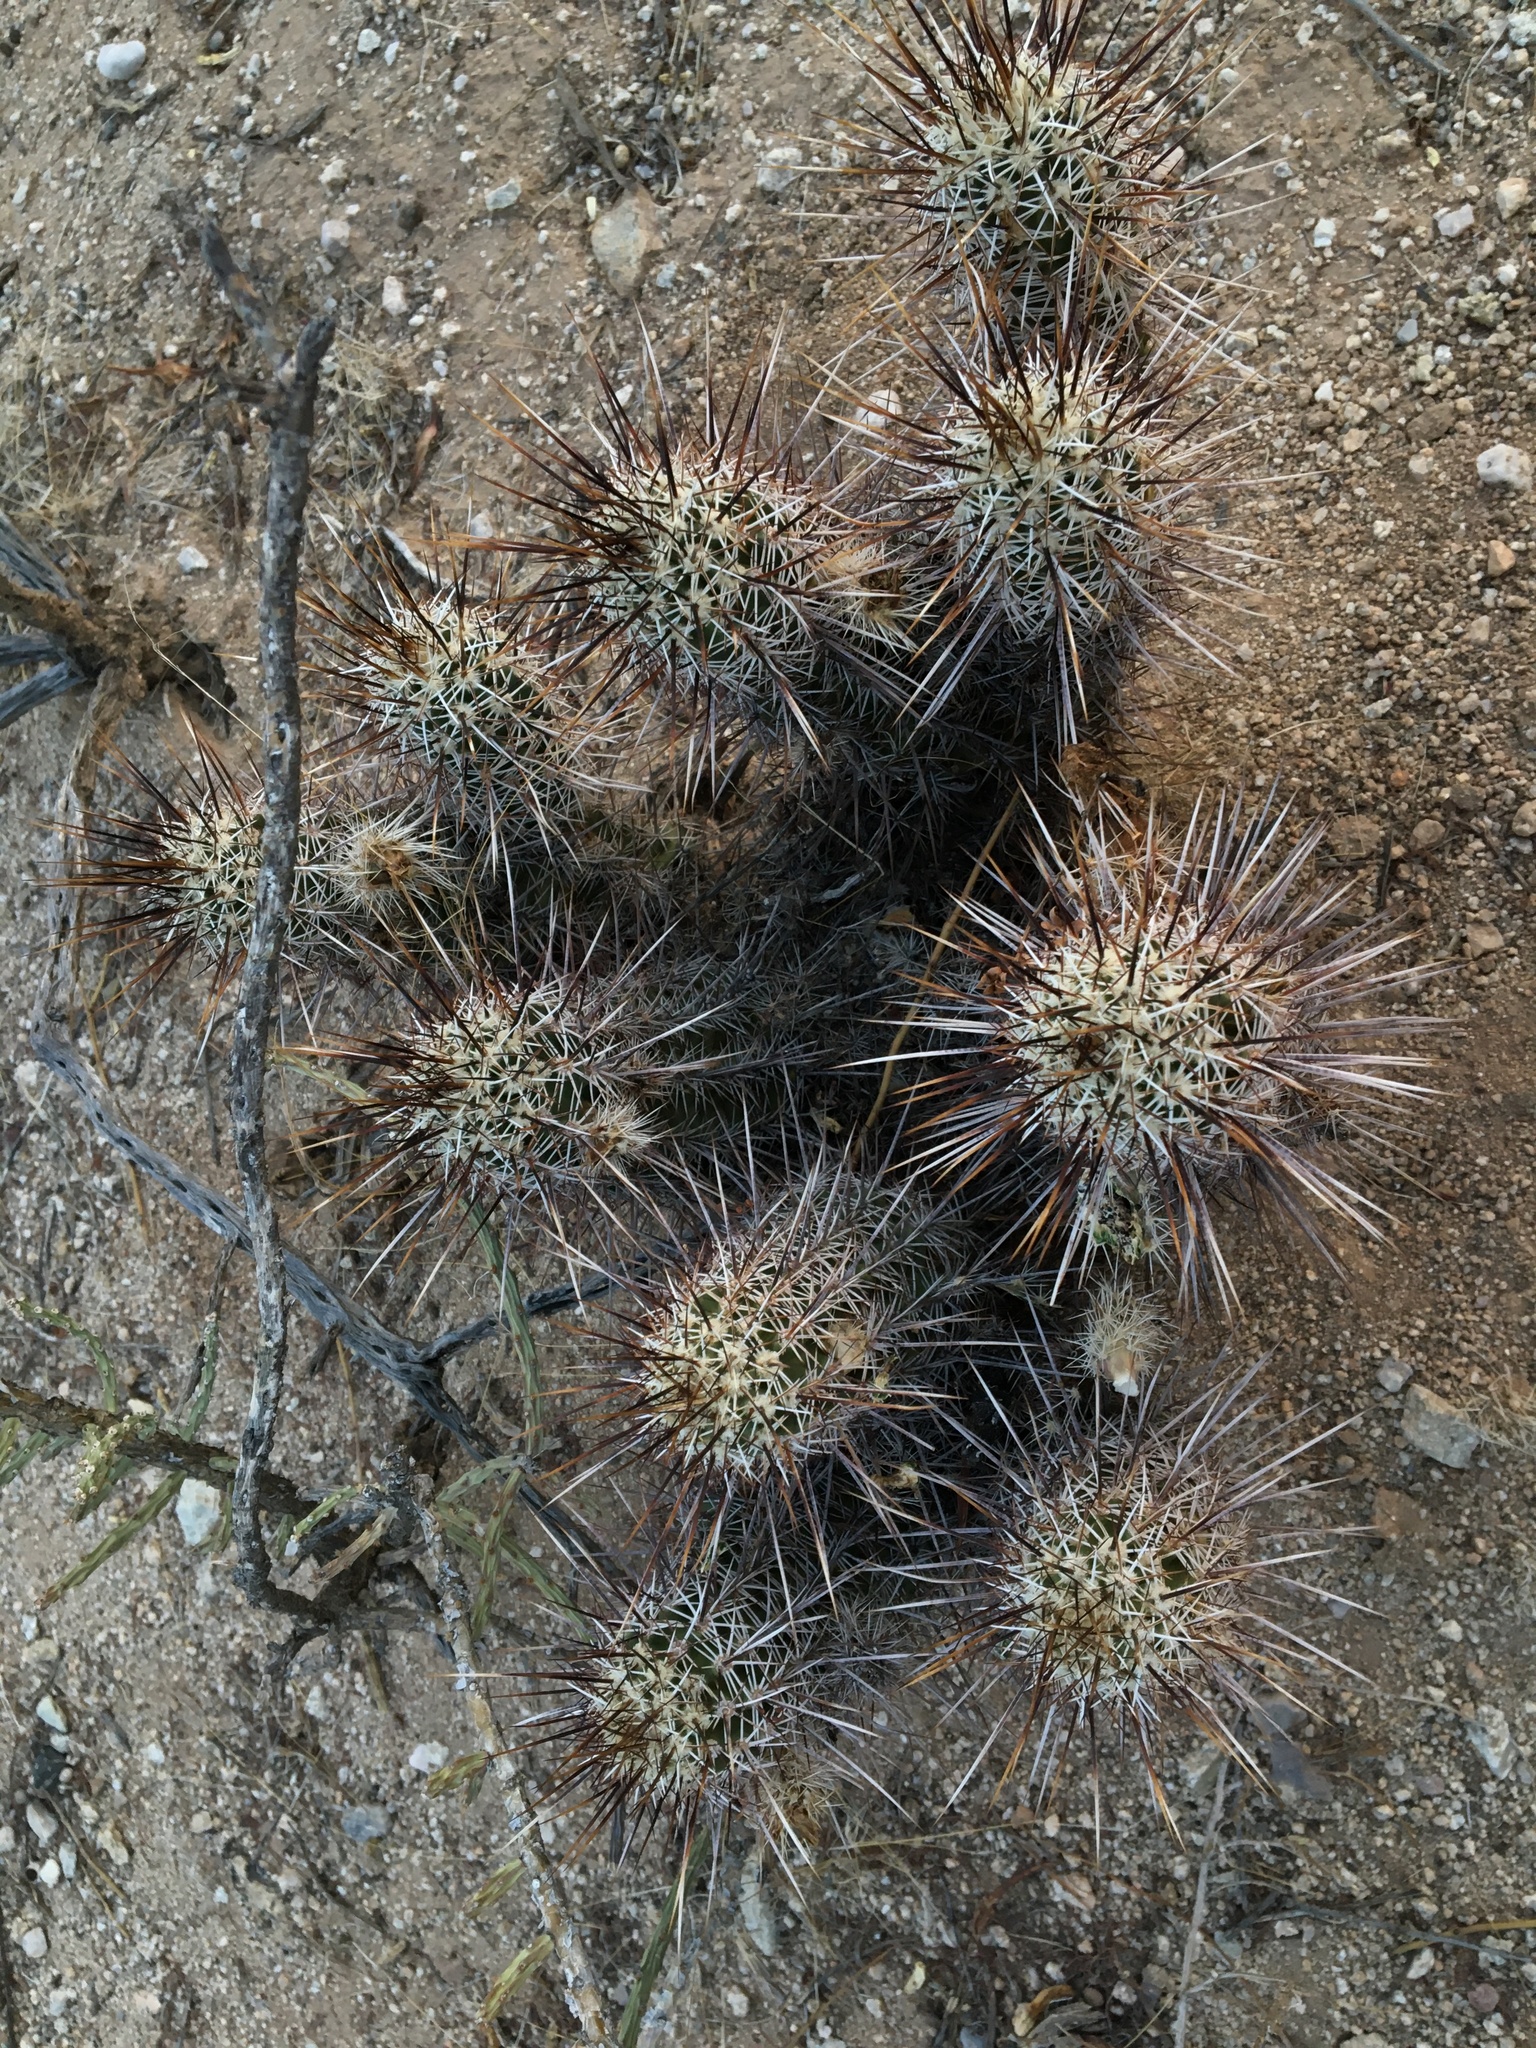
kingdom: Plantae
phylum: Tracheophyta
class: Magnoliopsida
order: Caryophyllales
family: Cactaceae
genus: Echinocereus
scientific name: Echinocereus fasciculatus
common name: Bundle hedgehog
